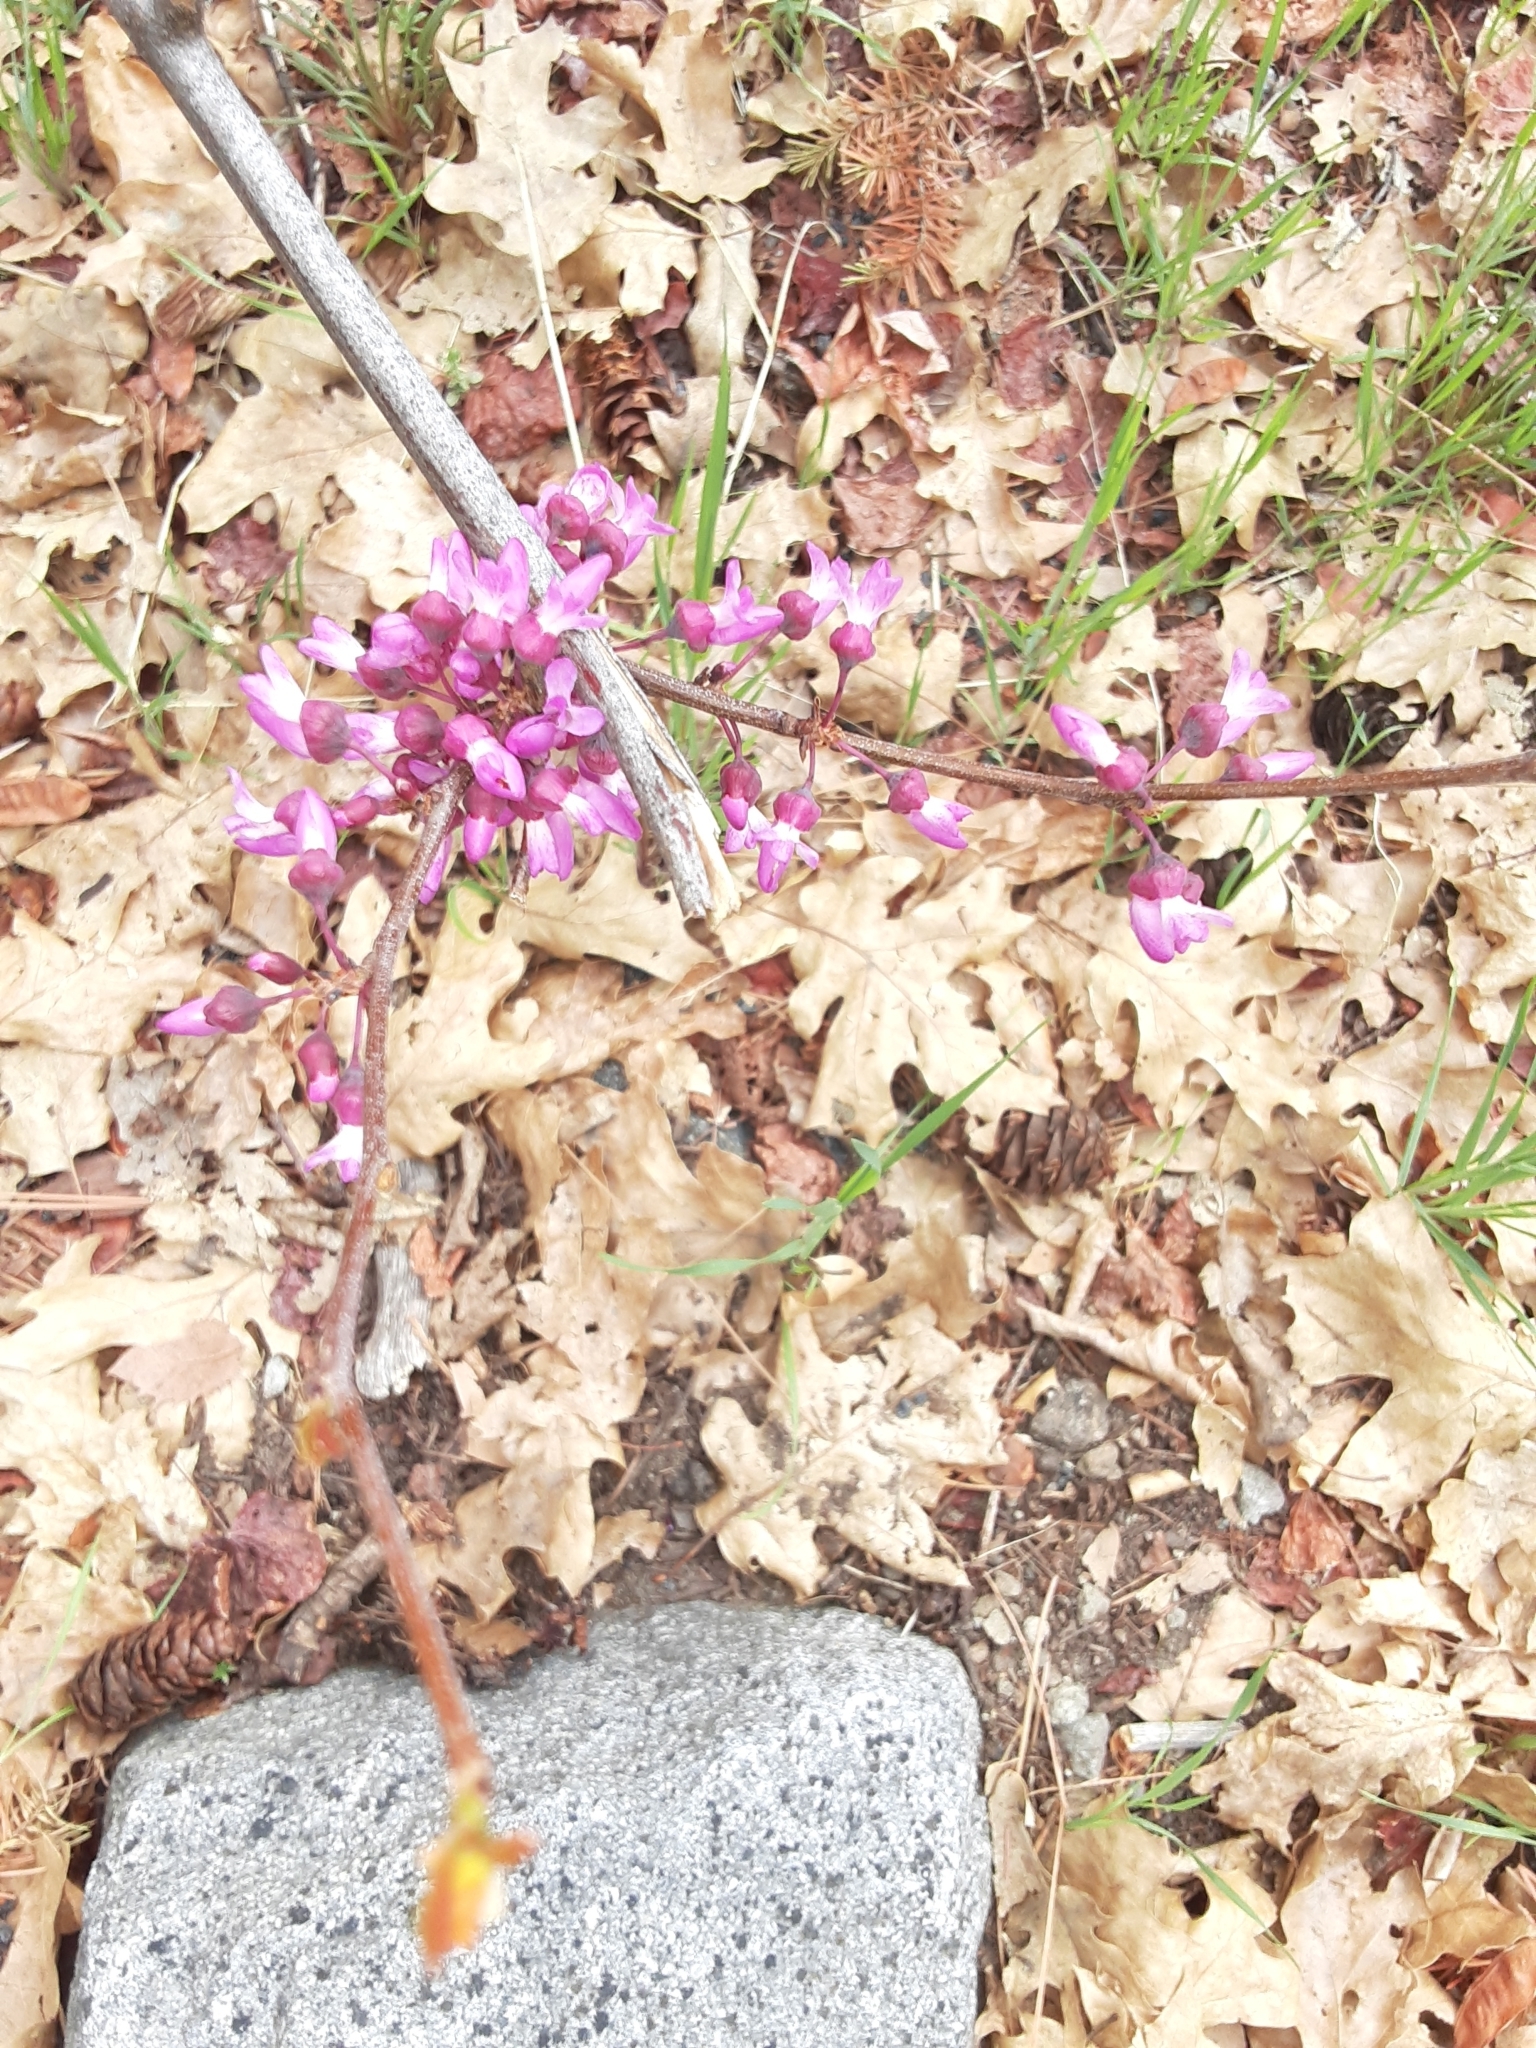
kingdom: Plantae
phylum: Tracheophyta
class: Magnoliopsida
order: Fabales
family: Fabaceae
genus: Cercis
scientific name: Cercis occidentalis
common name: California redbud
